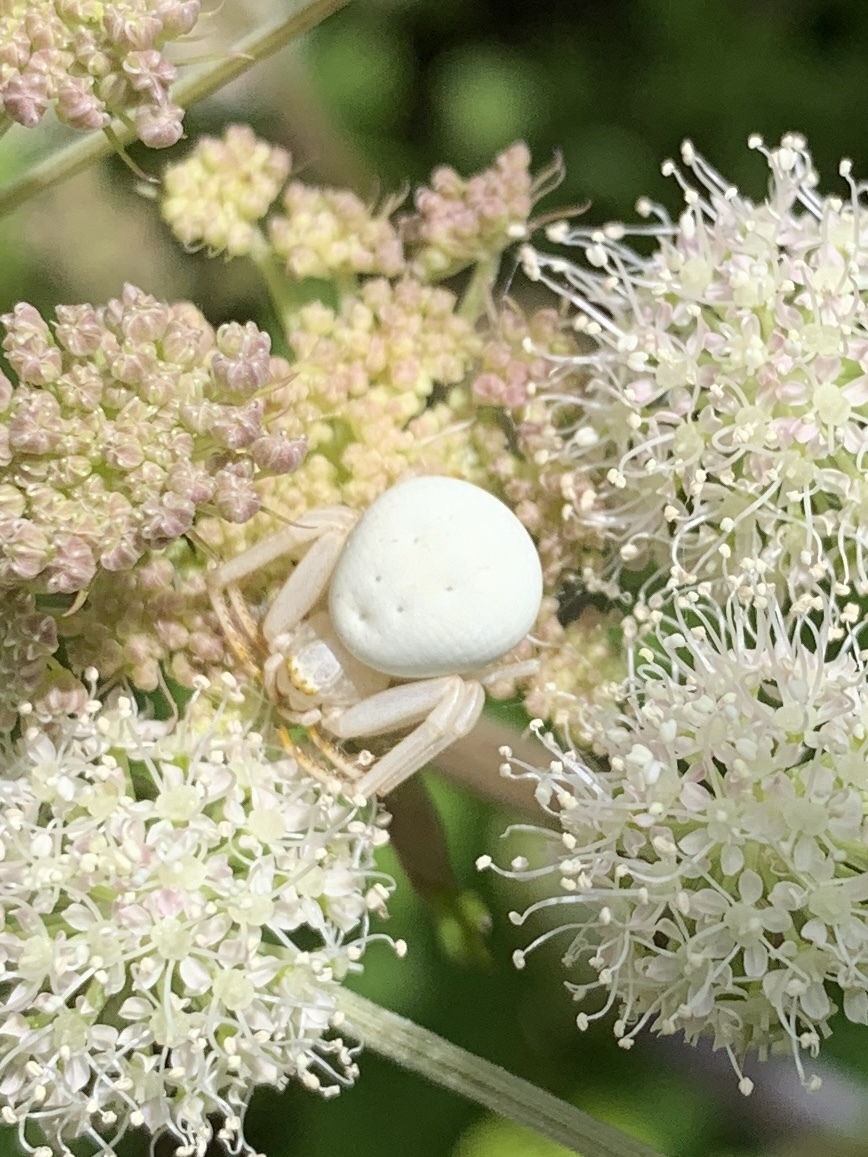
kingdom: Animalia
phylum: Arthropoda
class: Arachnida
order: Araneae
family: Thomisidae
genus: Misumena
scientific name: Misumena vatia
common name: Goldenrod crab spider
